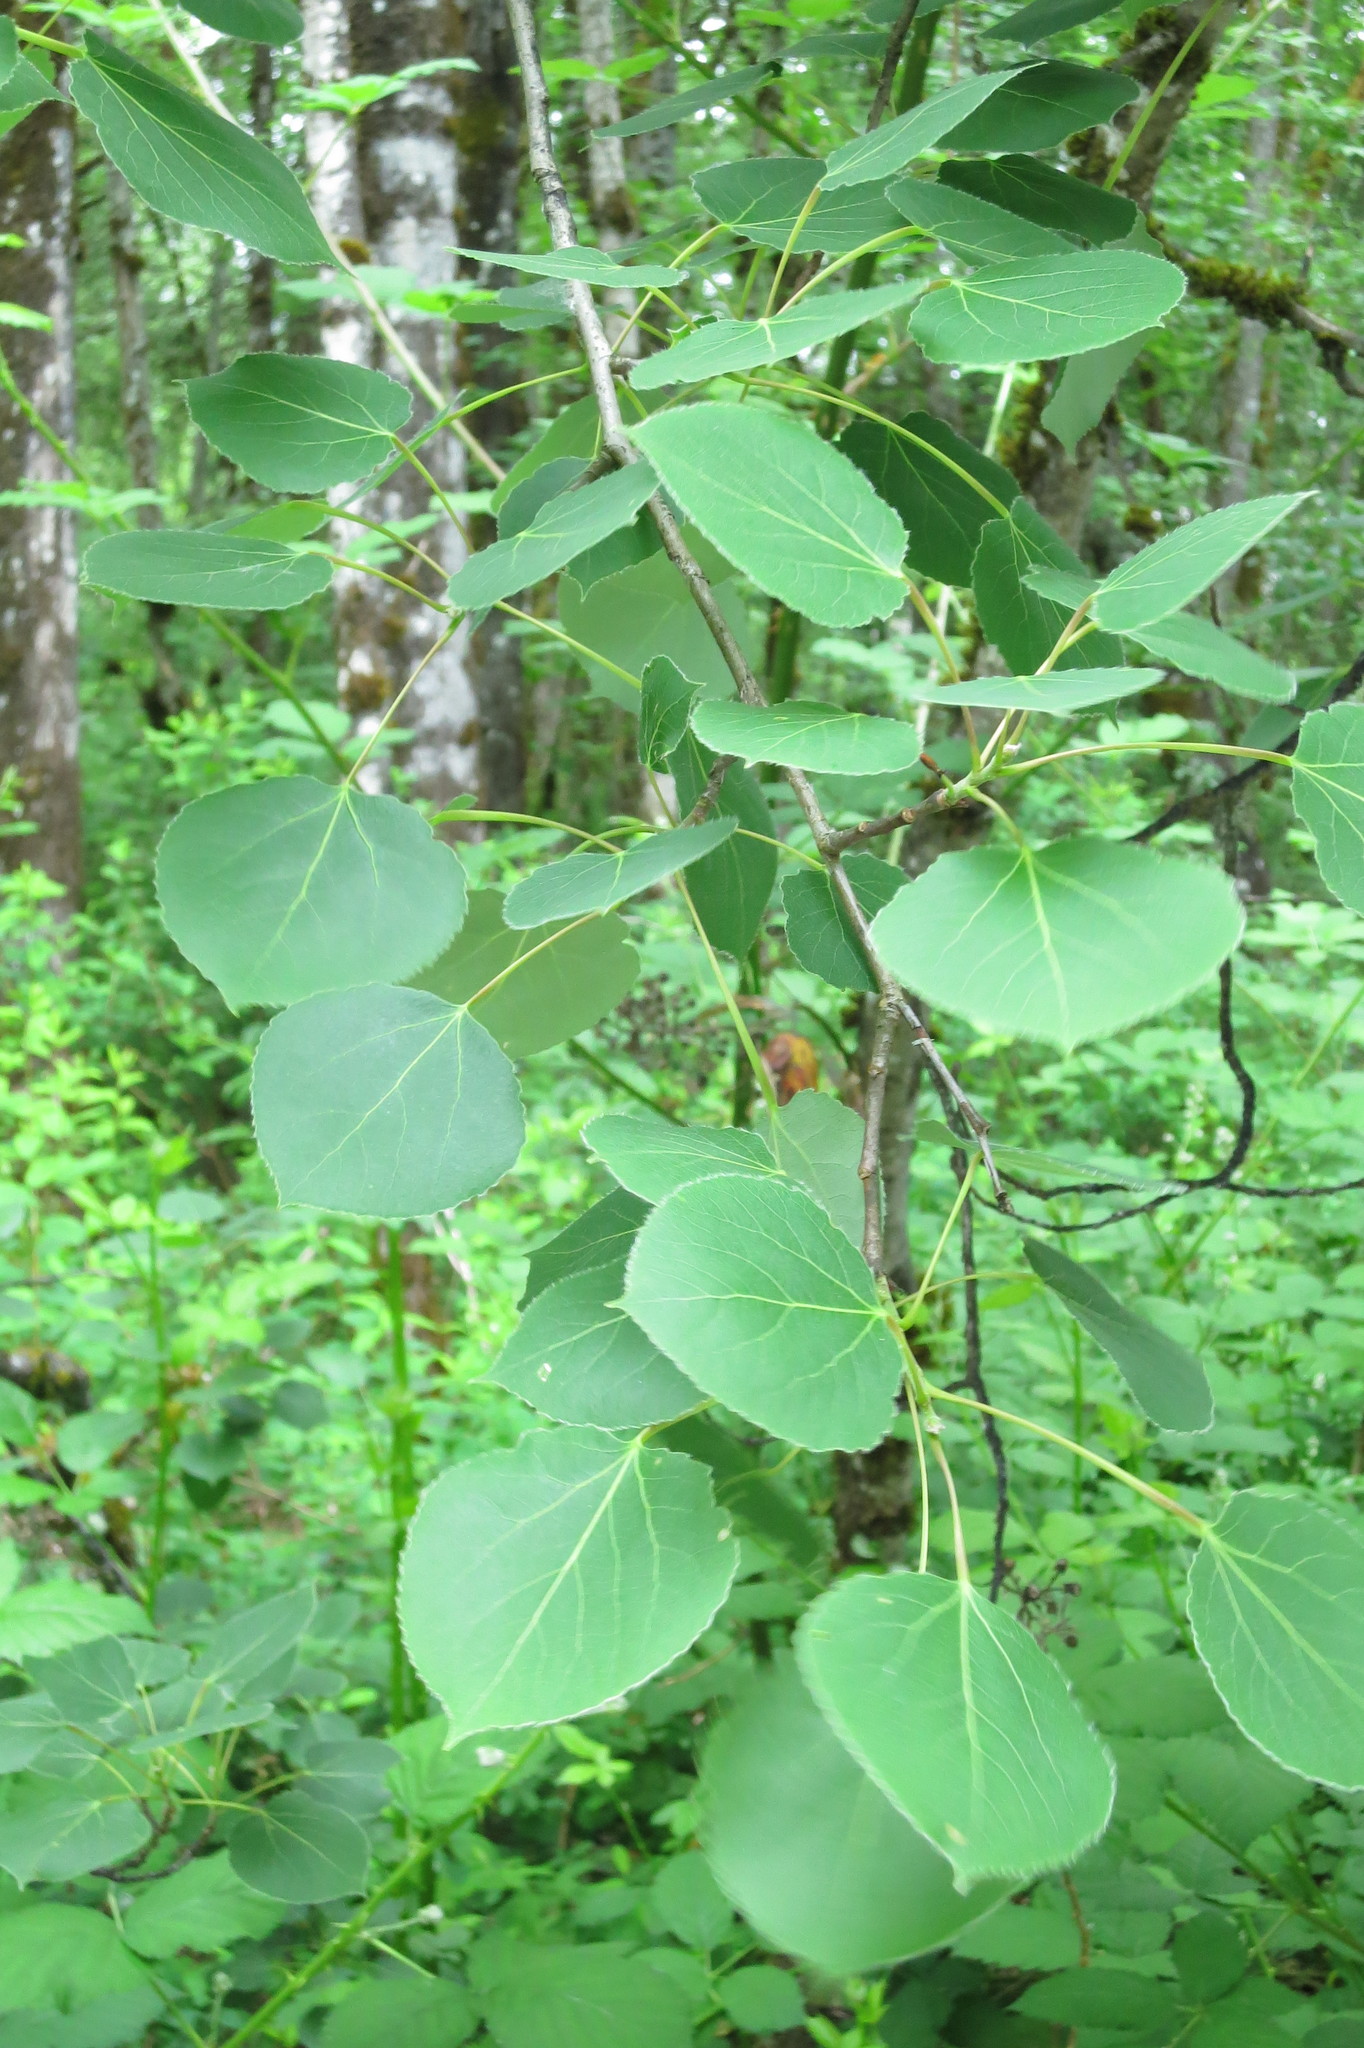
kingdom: Plantae
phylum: Tracheophyta
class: Magnoliopsida
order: Malpighiales
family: Salicaceae
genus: Populus
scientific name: Populus tremuloides
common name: Quaking aspen
